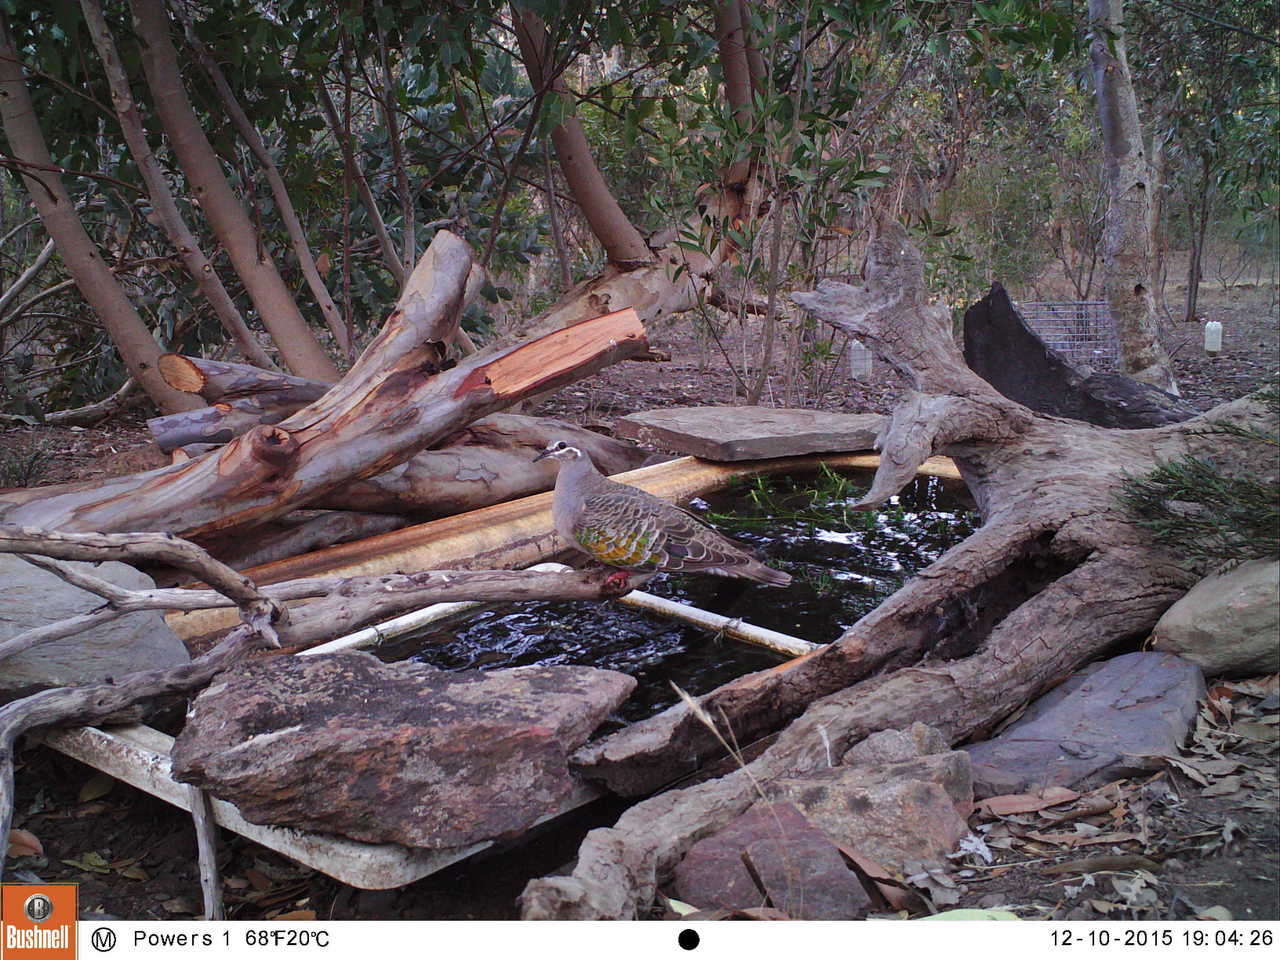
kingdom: Animalia
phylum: Chordata
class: Aves
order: Columbiformes
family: Columbidae
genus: Phaps
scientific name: Phaps chalcoptera
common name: Common bronzewing
